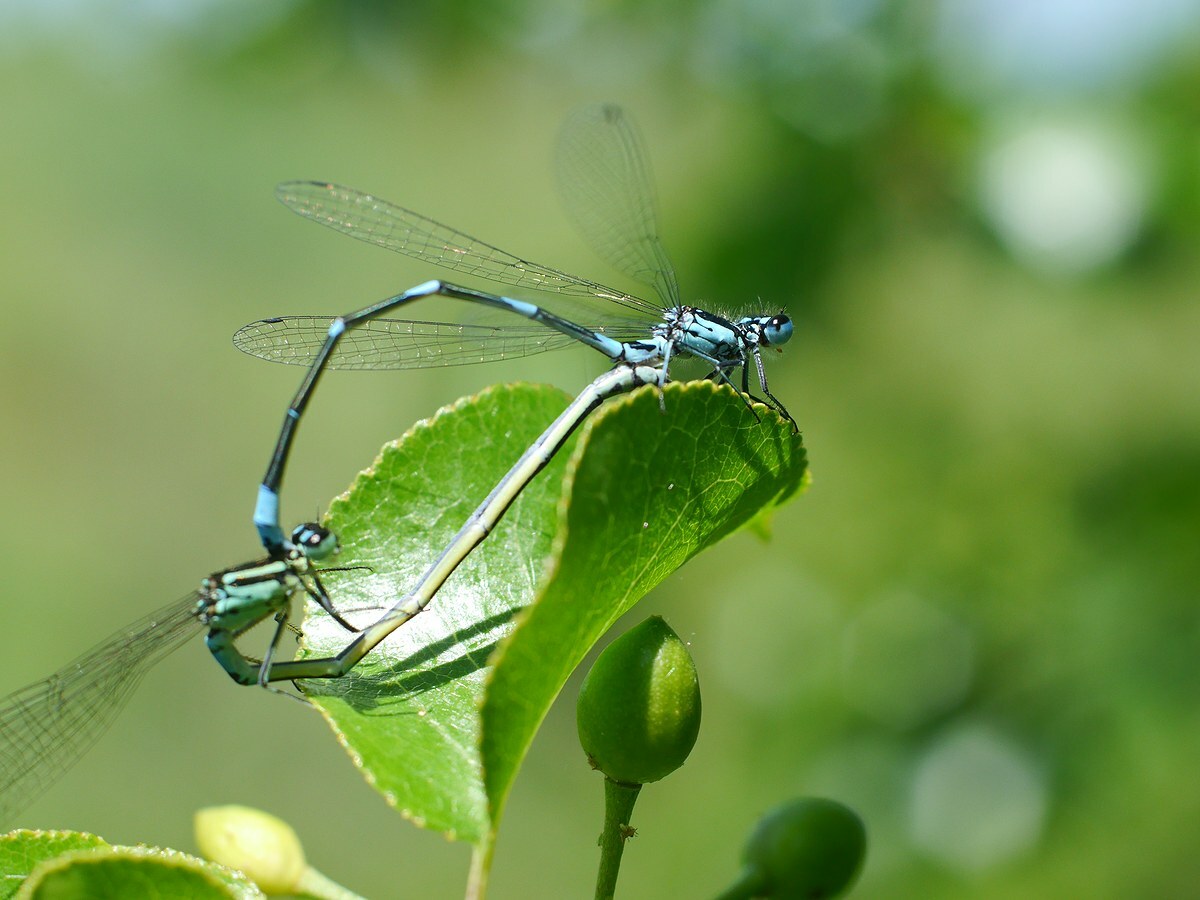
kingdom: Animalia
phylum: Arthropoda
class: Insecta
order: Odonata
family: Coenagrionidae
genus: Coenagrion
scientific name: Coenagrion pulchellum
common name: Variable bluet
